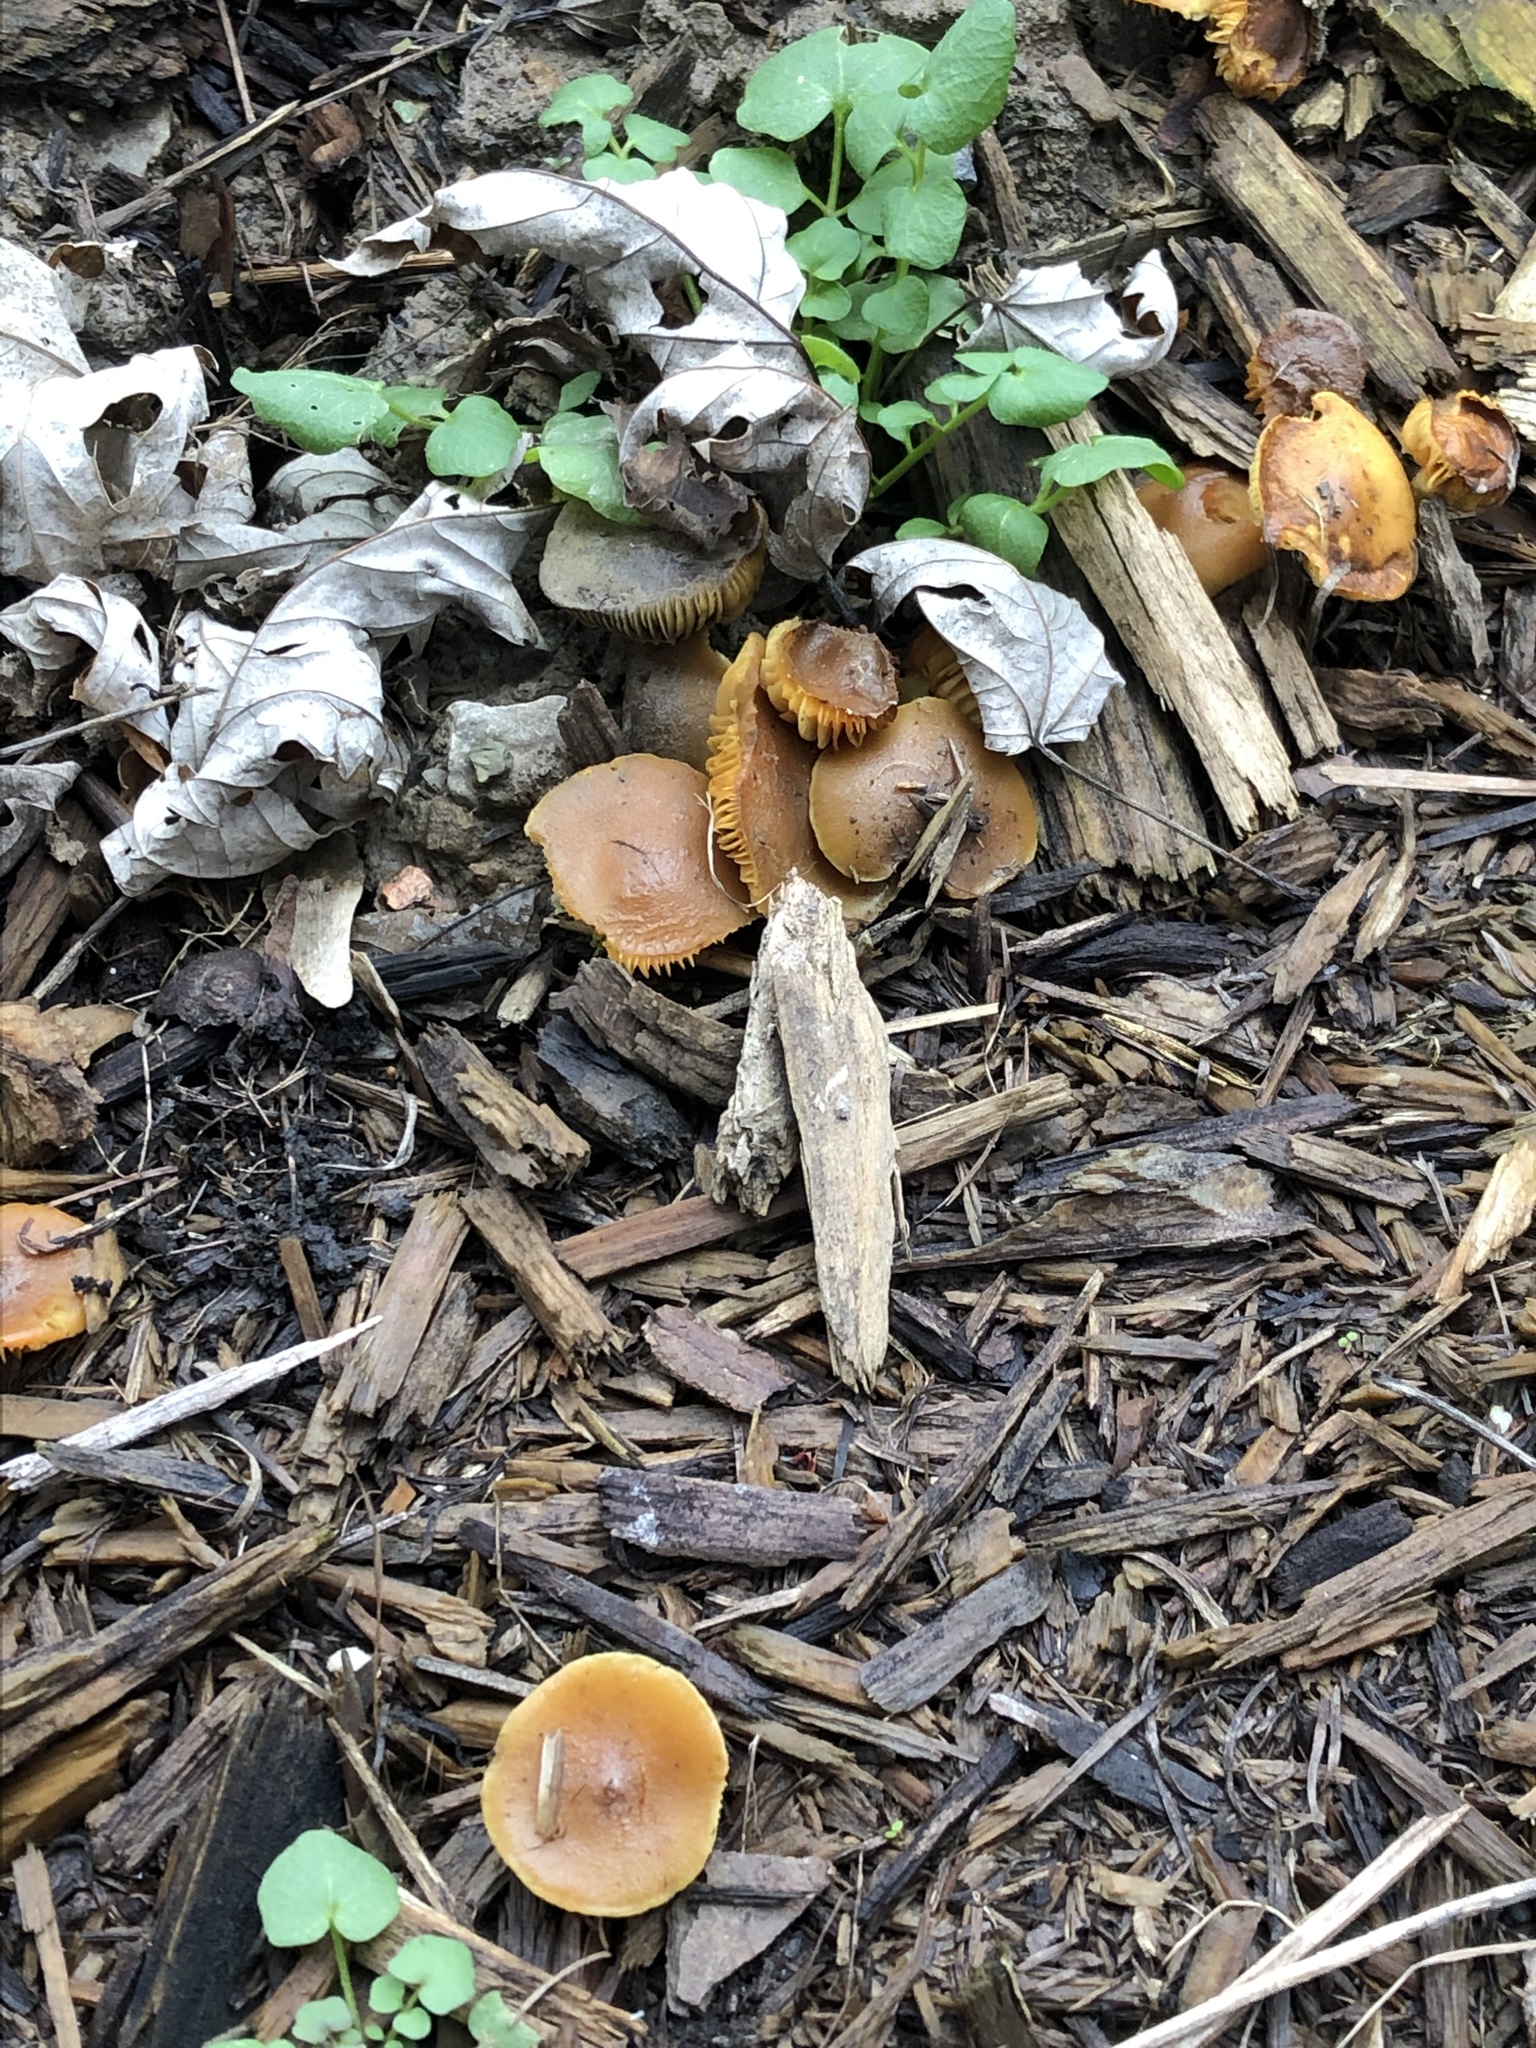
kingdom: Fungi
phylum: Basidiomycota
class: Agaricomycetes
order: Agaricales
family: Tubariaceae
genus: Tubaria
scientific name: Tubaria furfuracea
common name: Scurfy twiglet
